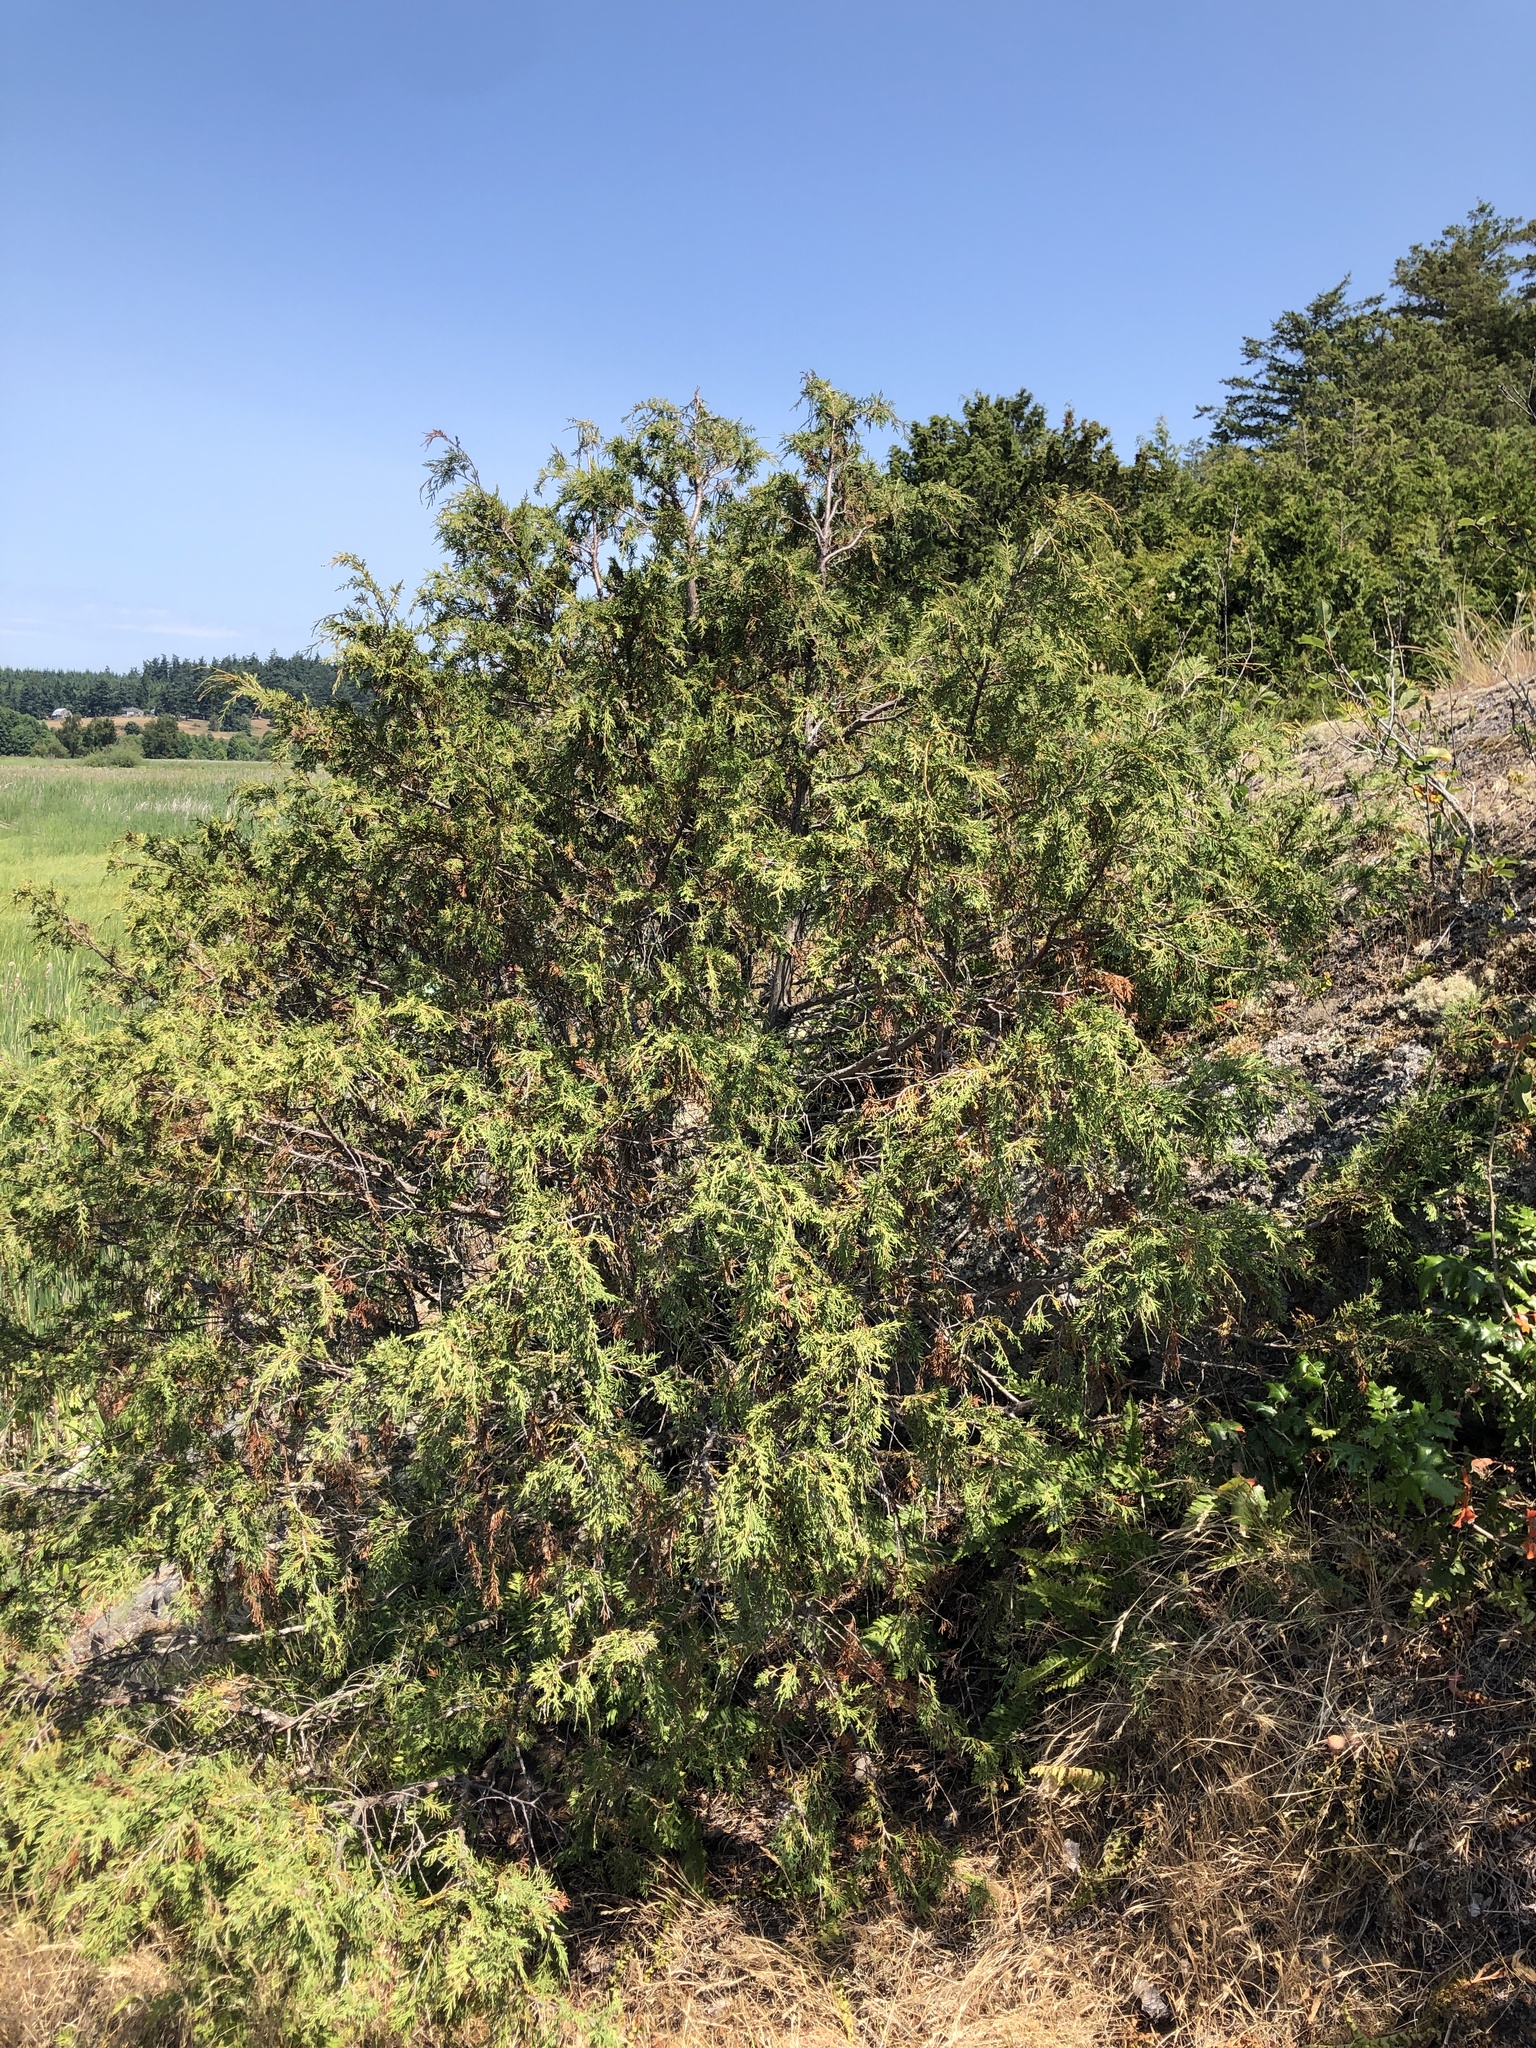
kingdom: Plantae
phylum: Tracheophyta
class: Pinopsida
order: Pinales
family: Cupressaceae
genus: Juniperus
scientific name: Juniperus scopulorum
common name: Rocky mountain juniper
